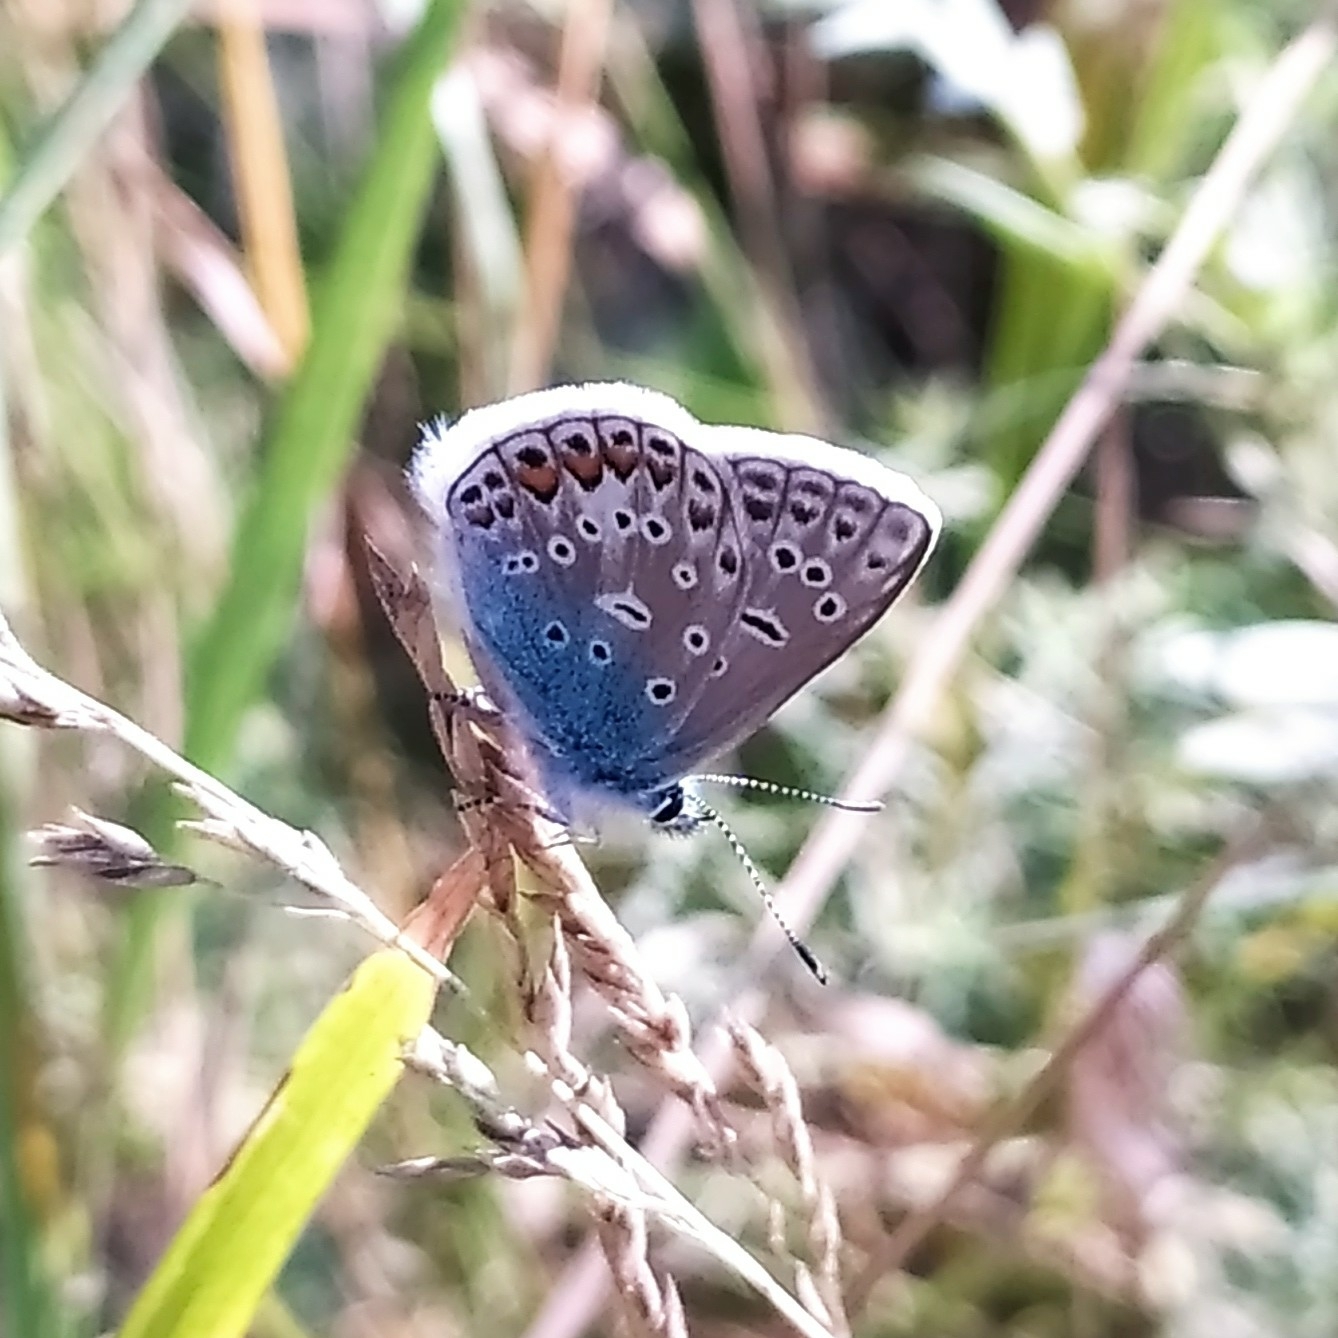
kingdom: Animalia
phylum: Arthropoda
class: Insecta
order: Lepidoptera
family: Lycaenidae
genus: Polyommatus
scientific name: Polyommatus icarus
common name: Common blue
